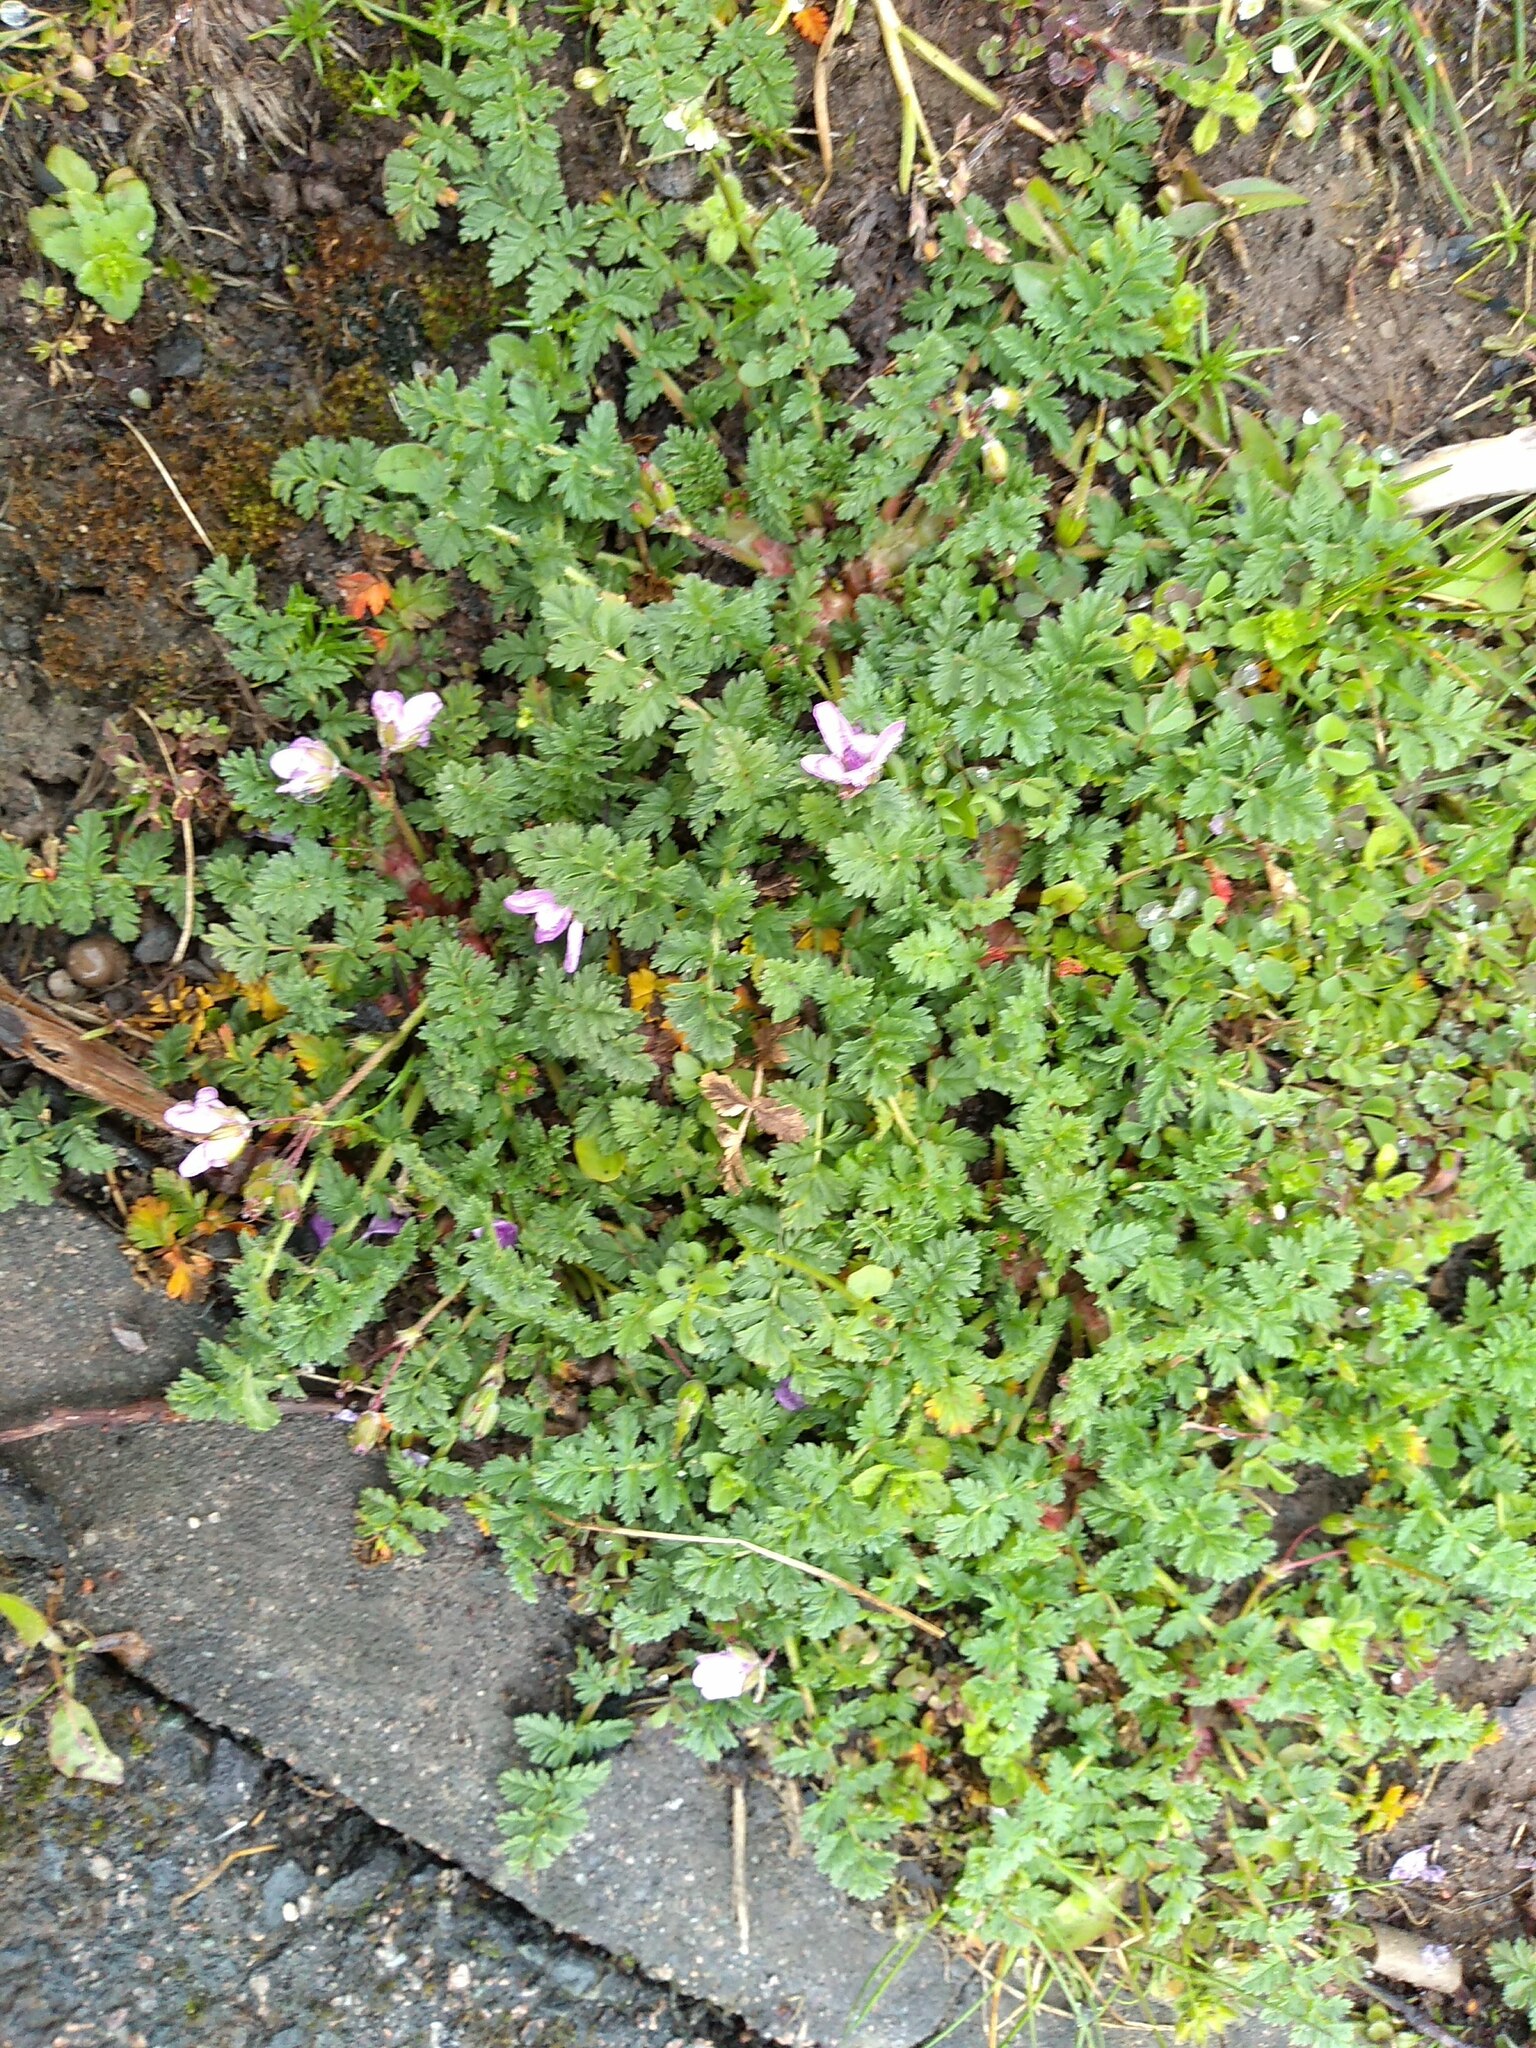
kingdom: Plantae
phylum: Tracheophyta
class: Magnoliopsida
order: Geraniales
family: Geraniaceae
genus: Erodium
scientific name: Erodium cicutarium
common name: Common stork's-bill
